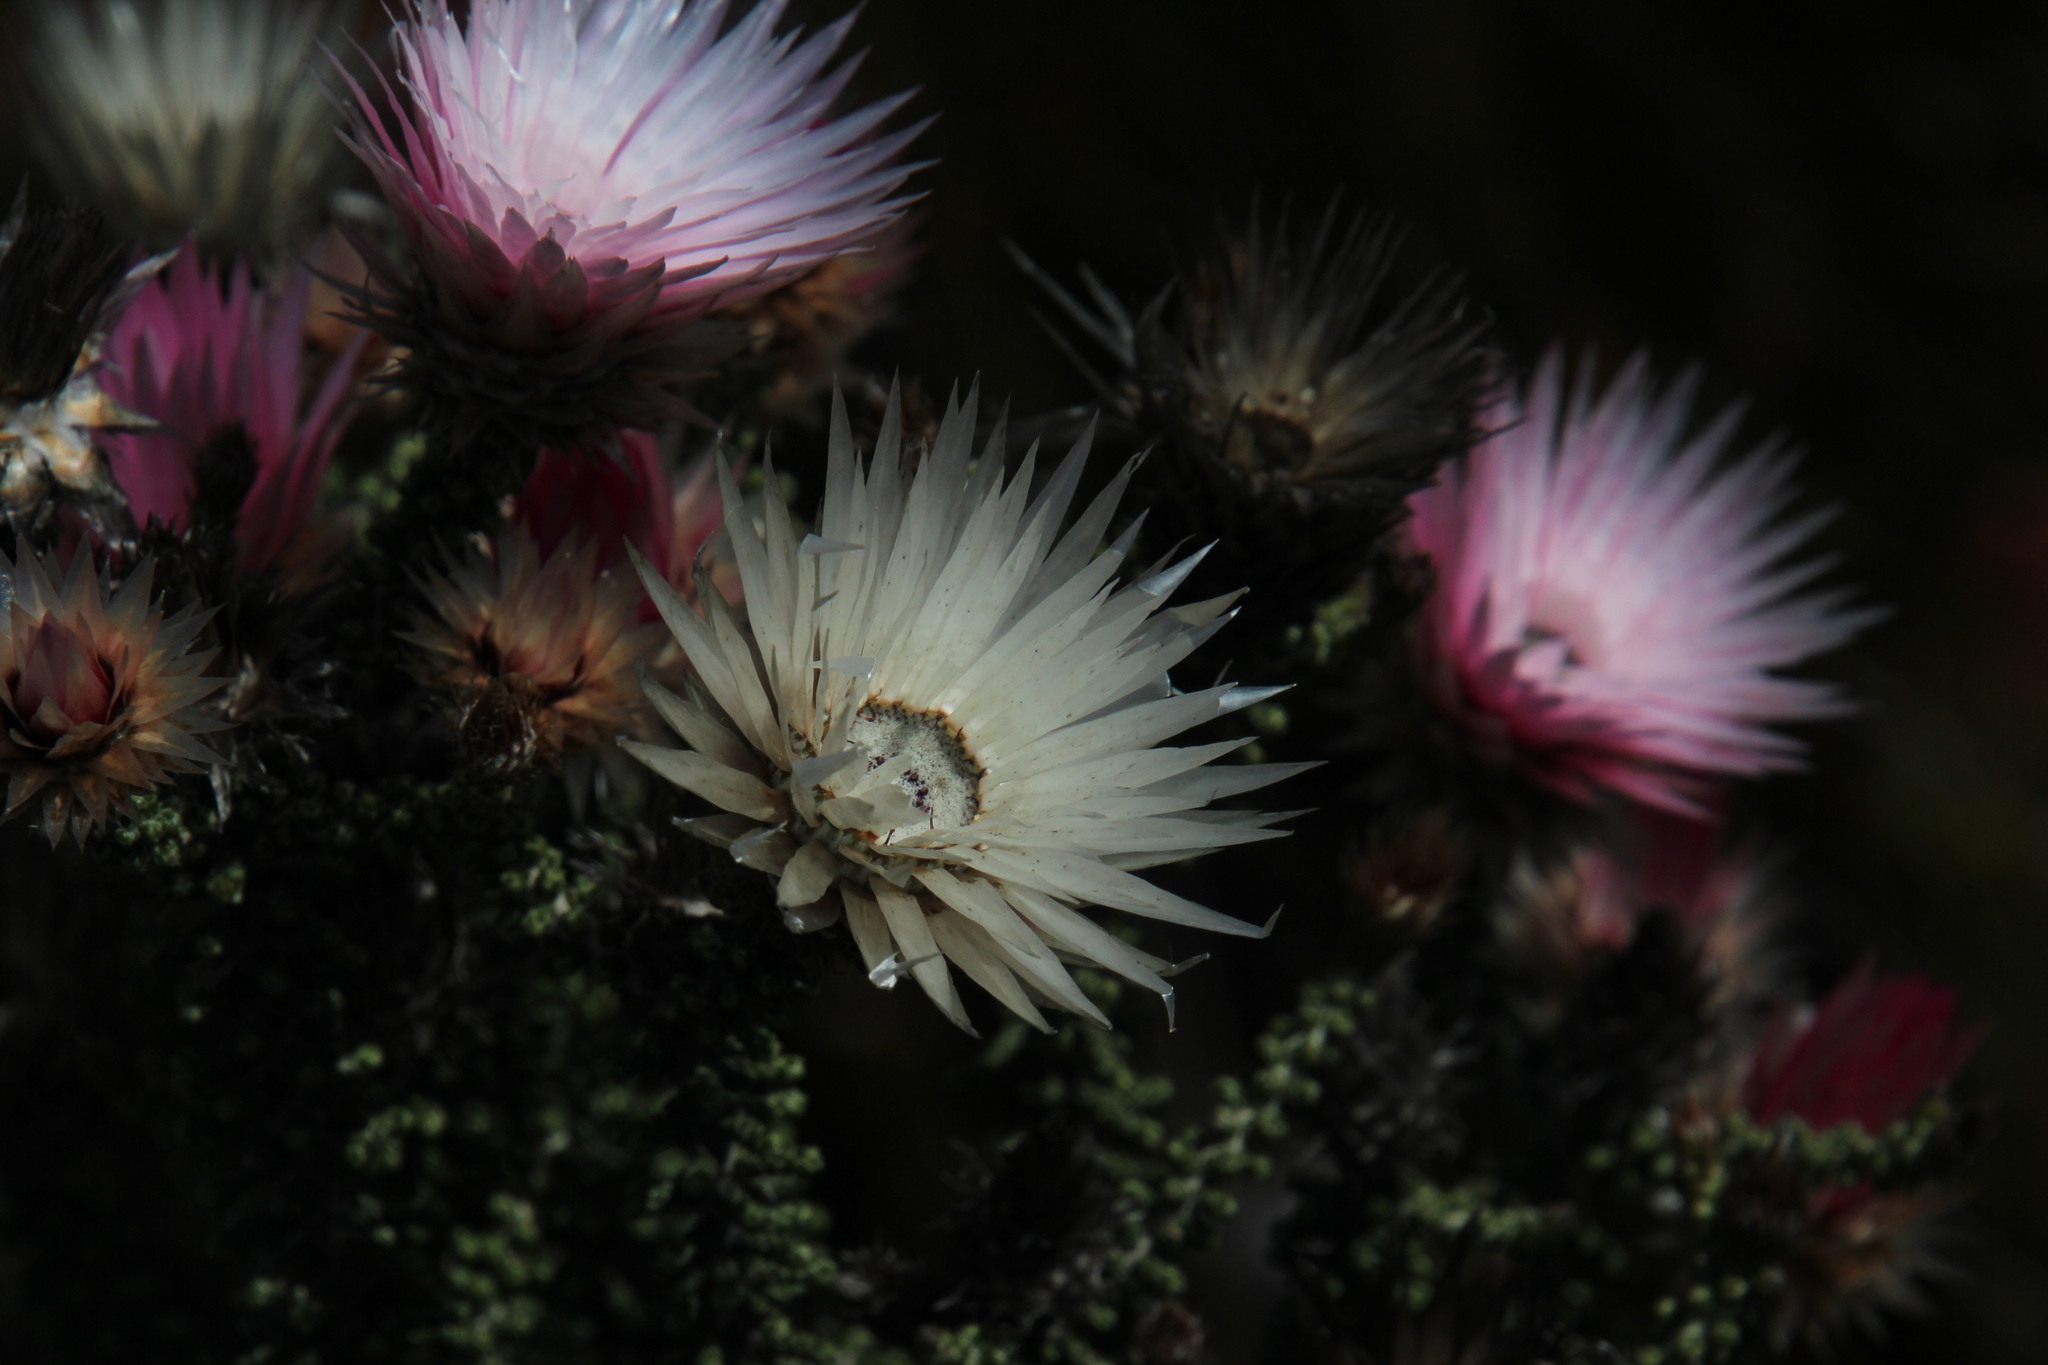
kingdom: Plantae
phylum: Tracheophyta
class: Magnoliopsida
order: Asterales
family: Asteraceae
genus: Phaenocoma
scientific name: Phaenocoma prolifera
